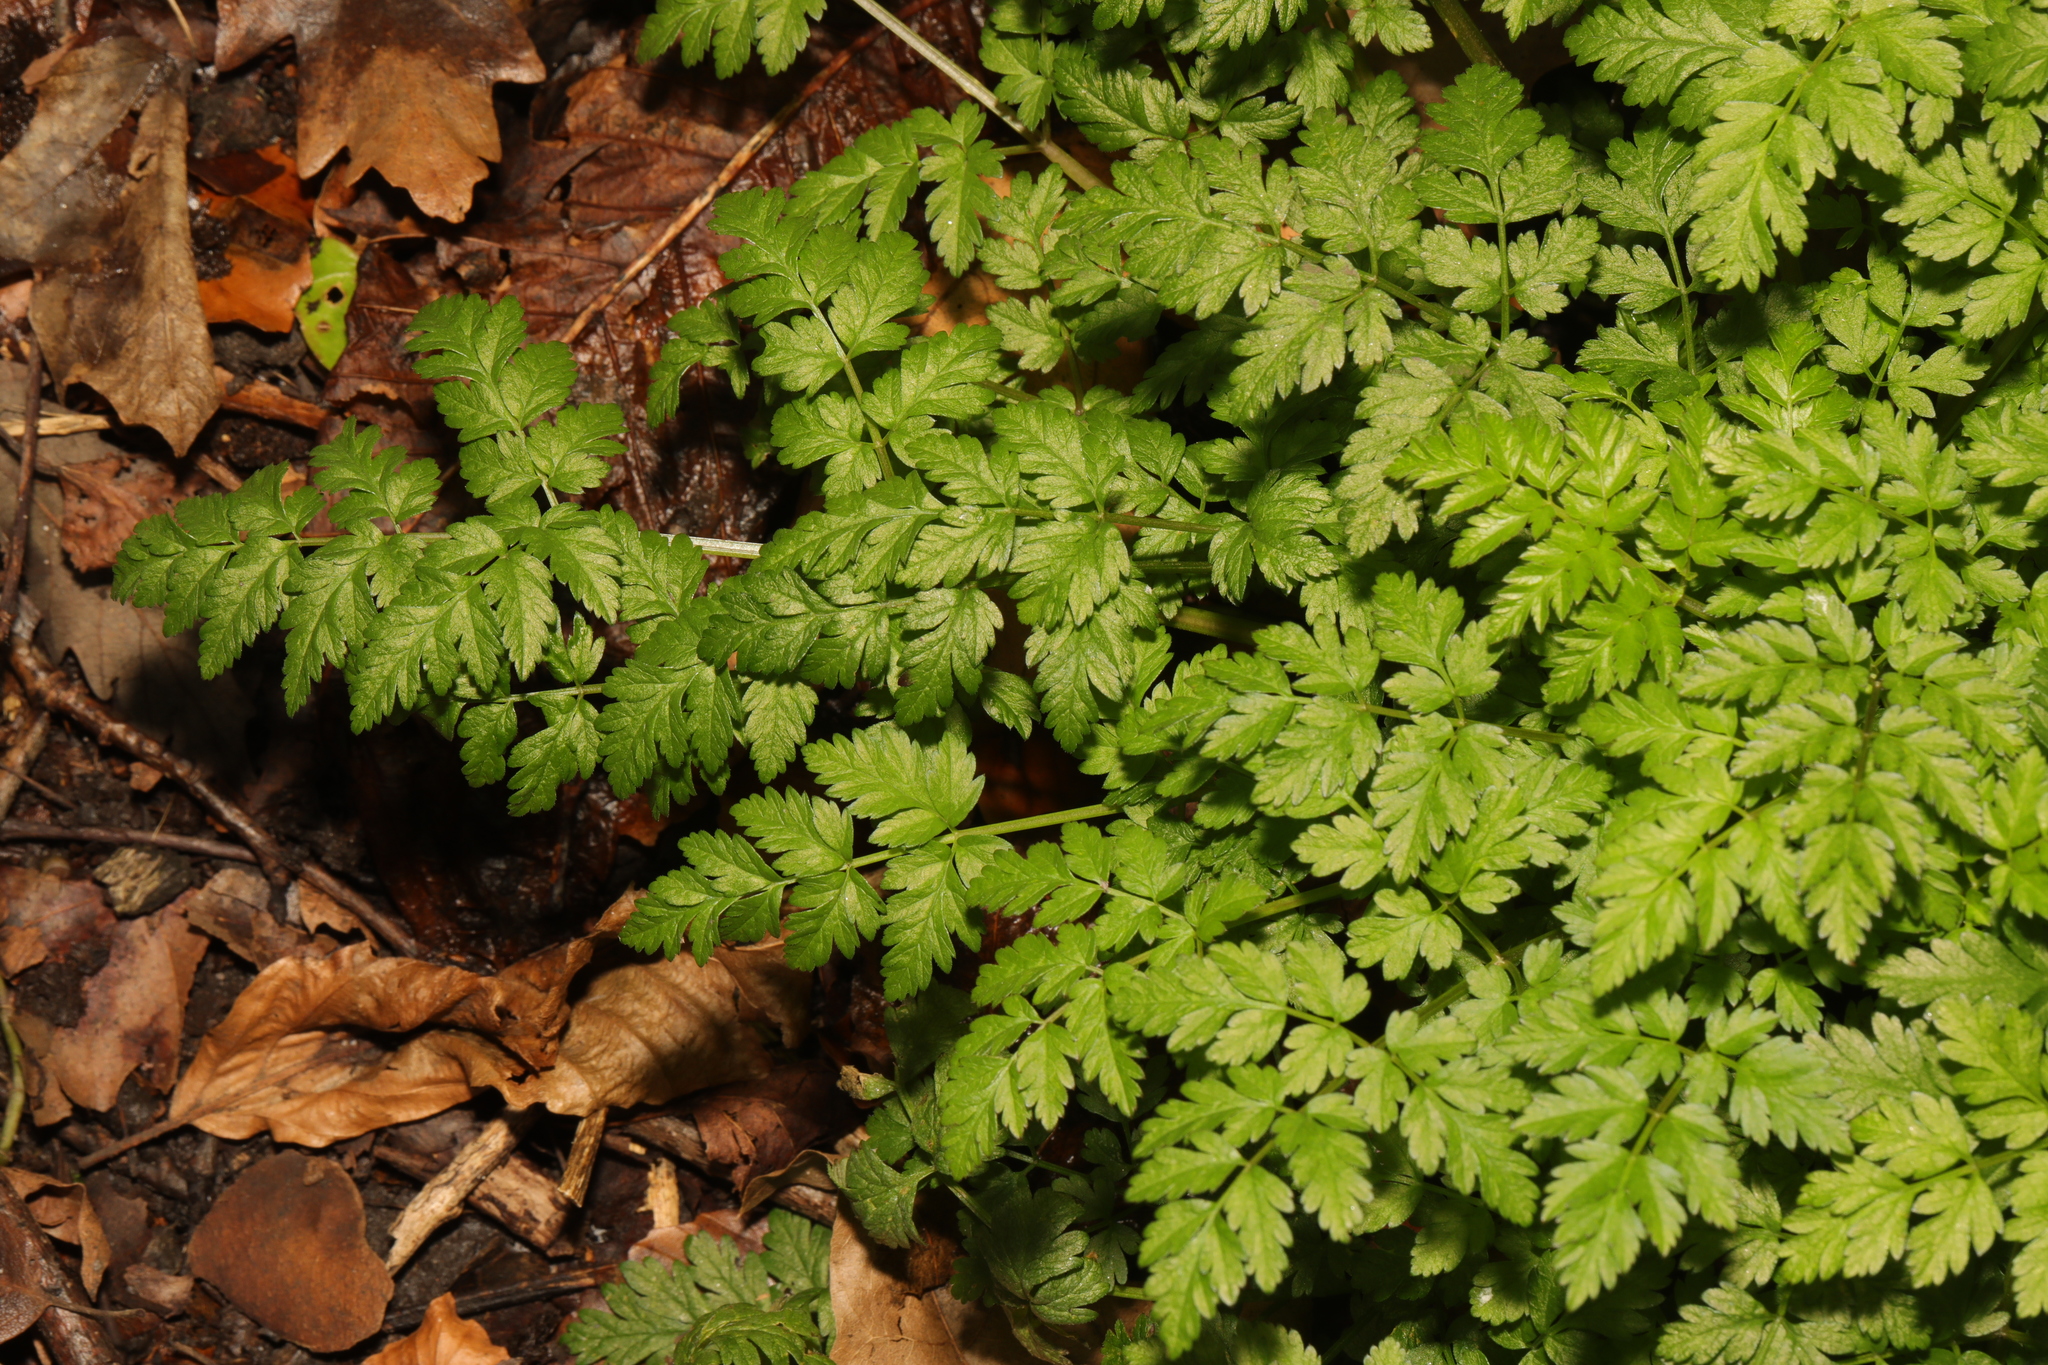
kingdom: Plantae
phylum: Tracheophyta
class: Magnoliopsida
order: Apiales
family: Apiaceae
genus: Anthriscus
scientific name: Anthriscus sylvestris
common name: Cow parsley
